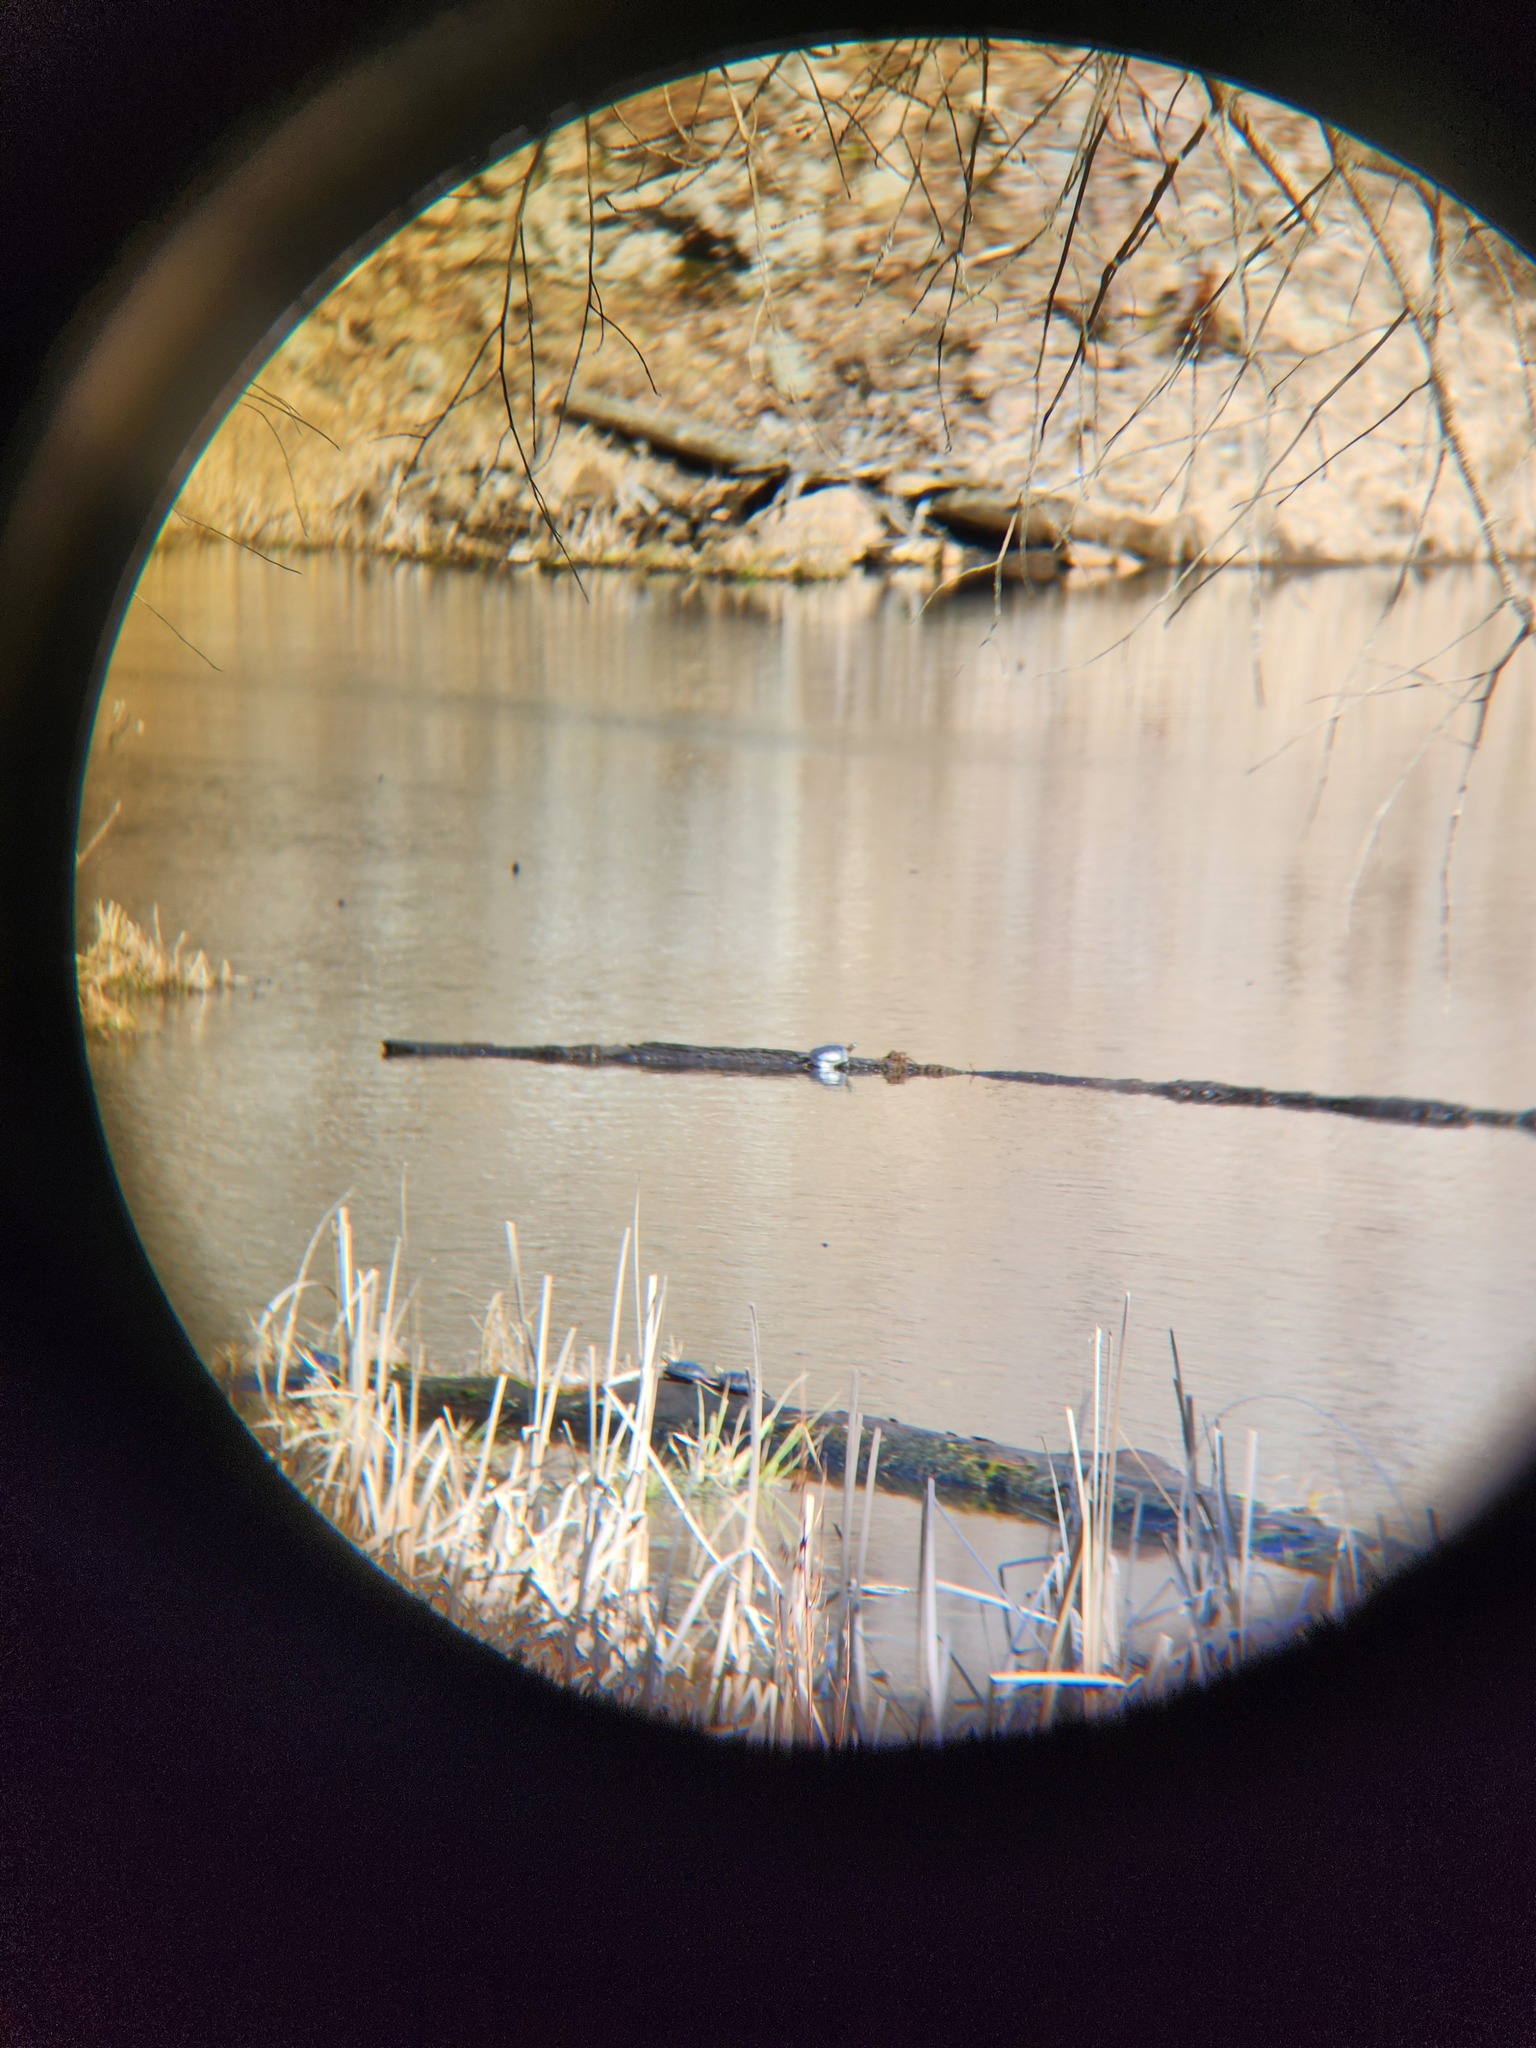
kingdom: Animalia
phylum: Chordata
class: Testudines
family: Emydidae
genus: Chrysemys
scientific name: Chrysemys picta
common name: Painted turtle
